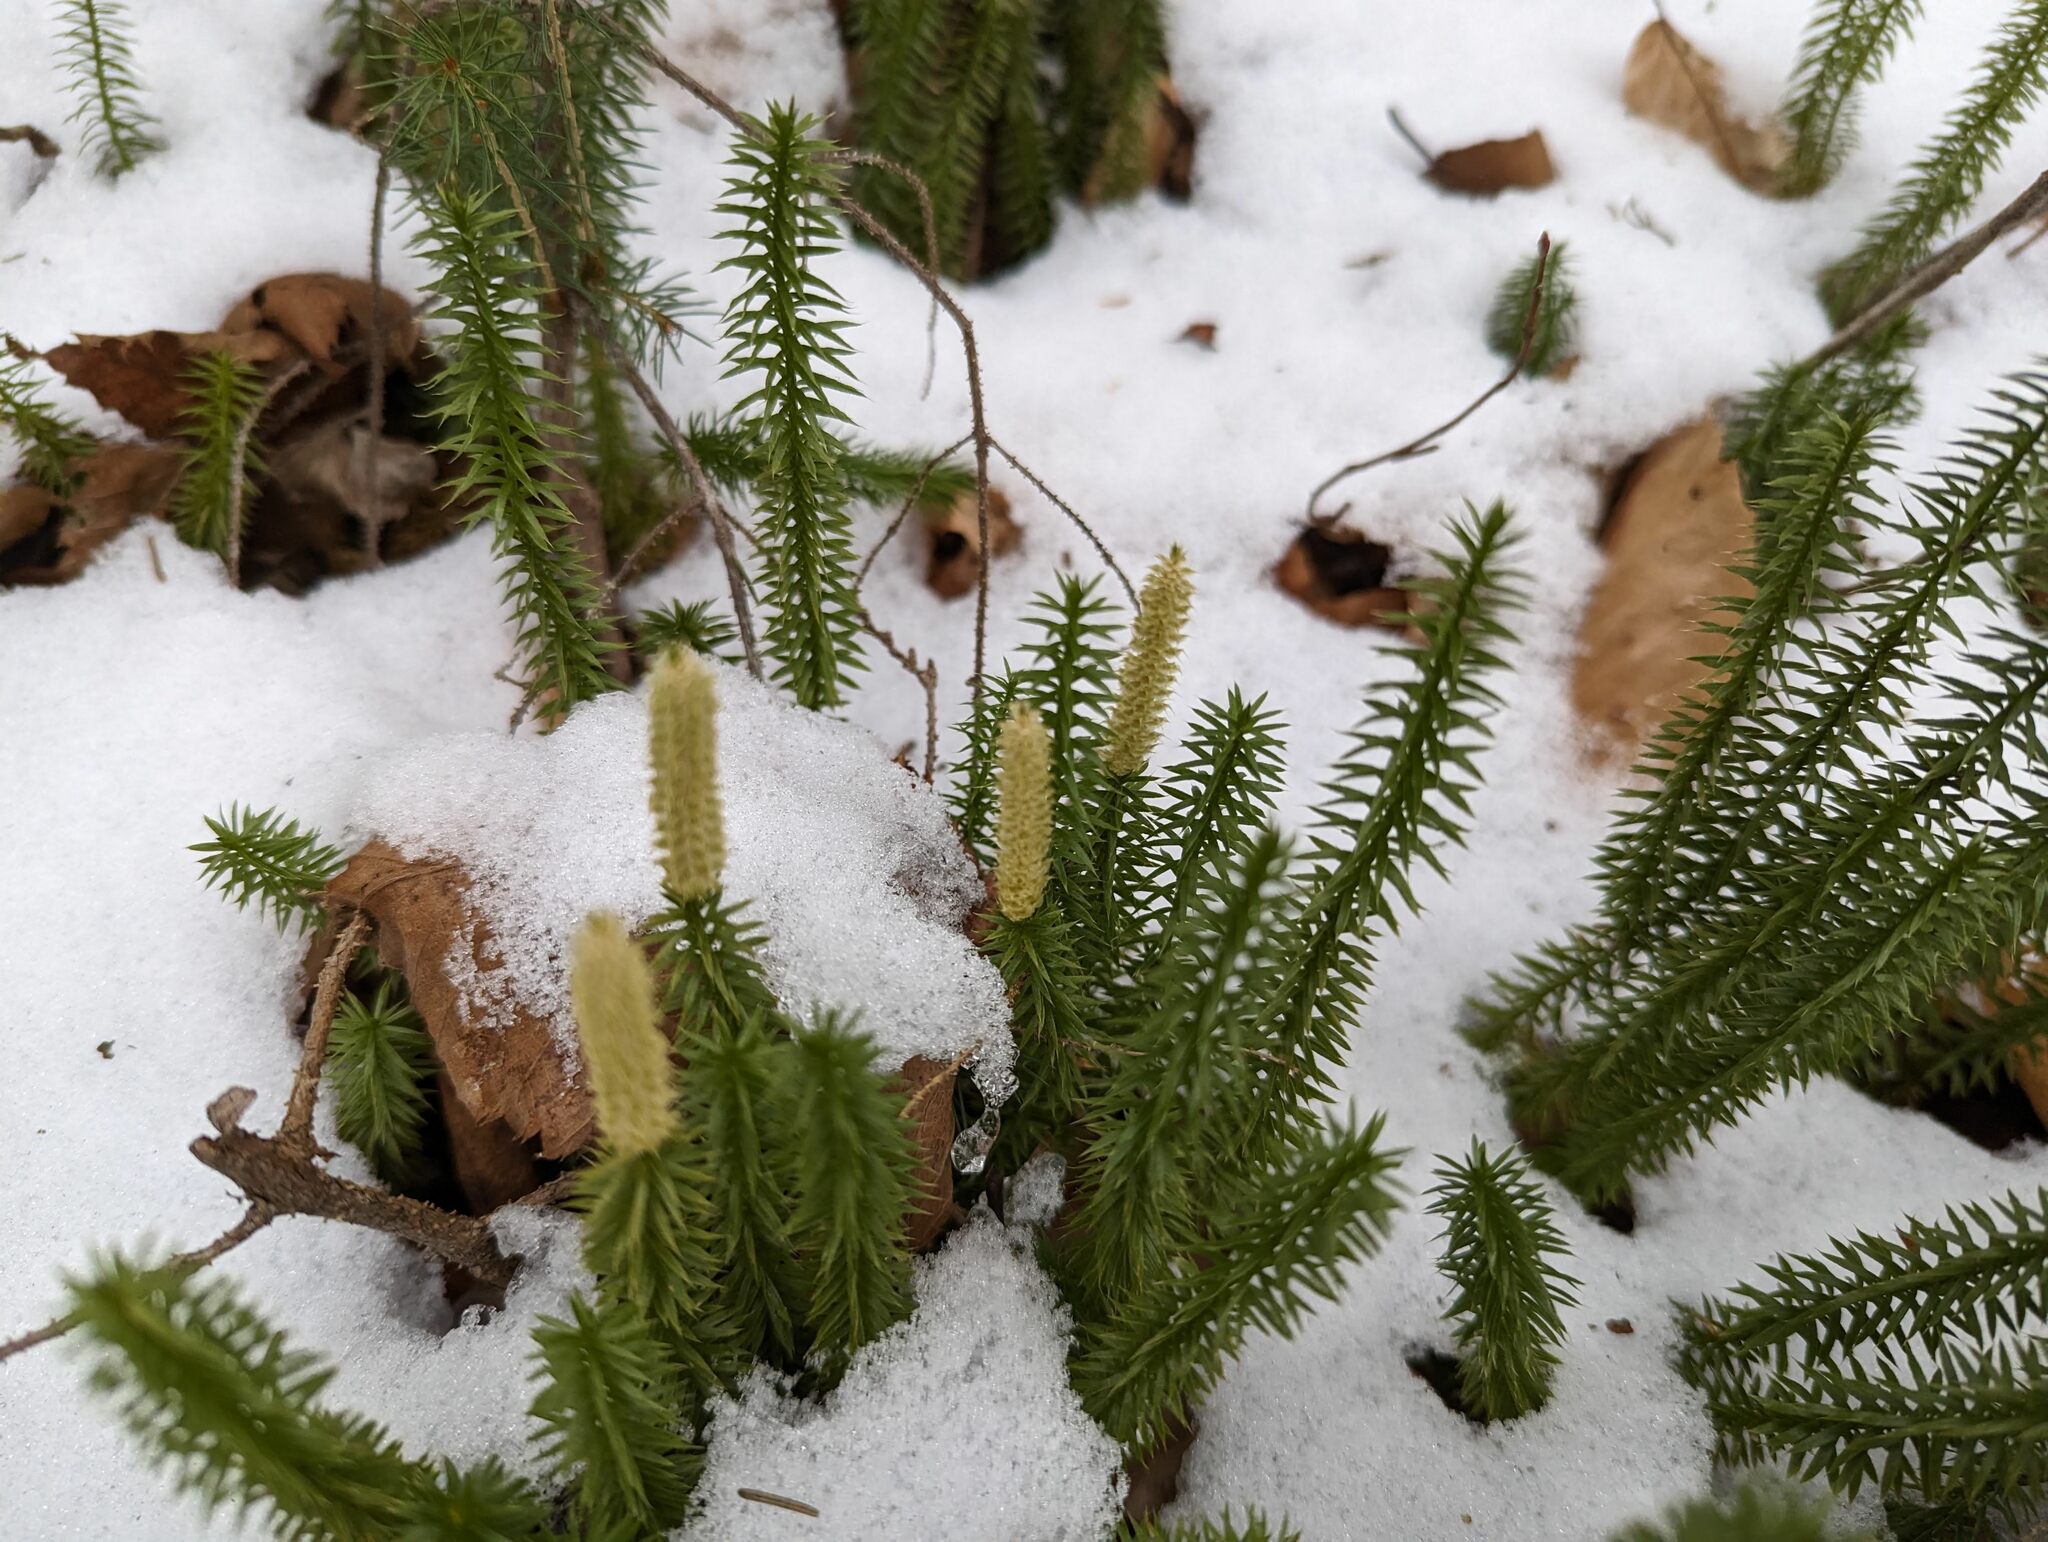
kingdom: Plantae
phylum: Tracheophyta
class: Lycopodiopsida
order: Lycopodiales
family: Lycopodiaceae
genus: Spinulum
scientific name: Spinulum annotinum
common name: Interrupted club-moss
